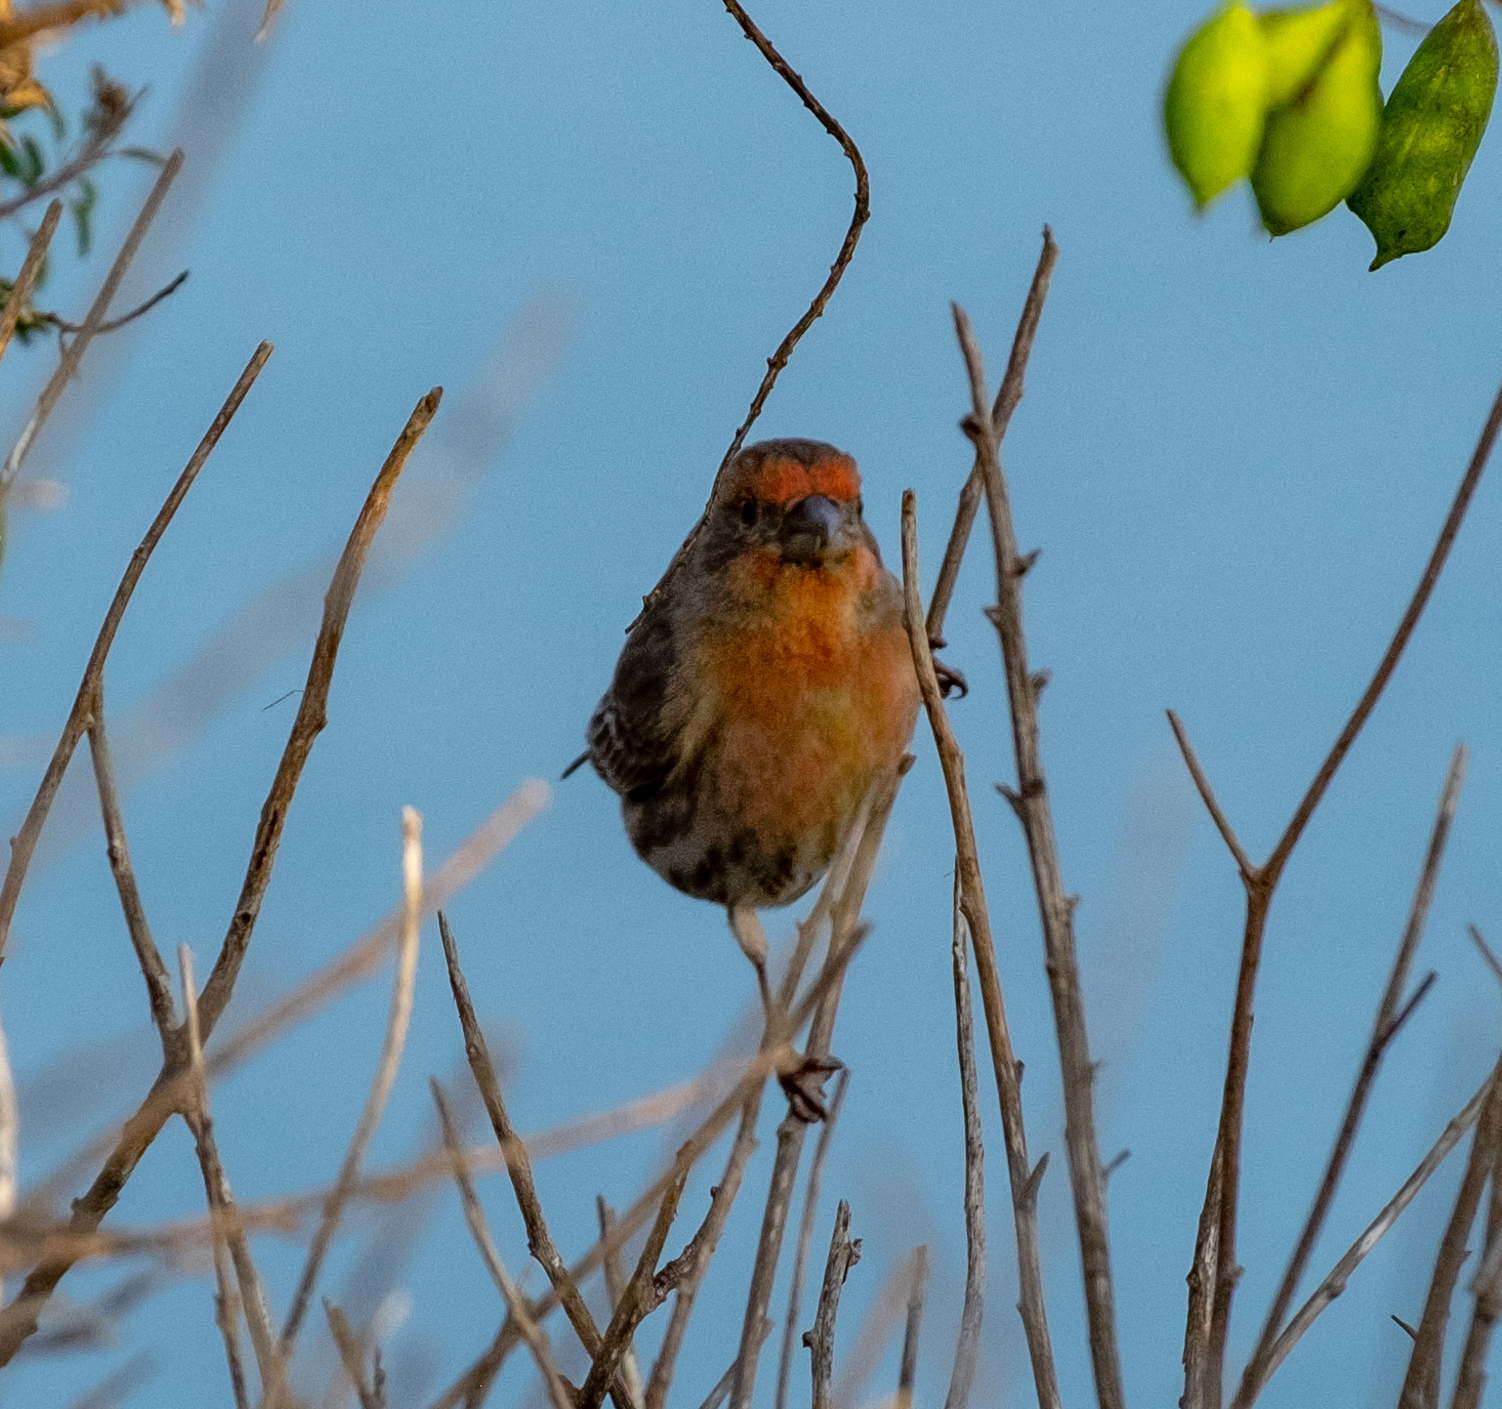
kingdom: Animalia
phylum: Chordata
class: Aves
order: Passeriformes
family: Fringillidae
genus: Haemorhous
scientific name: Haemorhous mexicanus
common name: House finch
